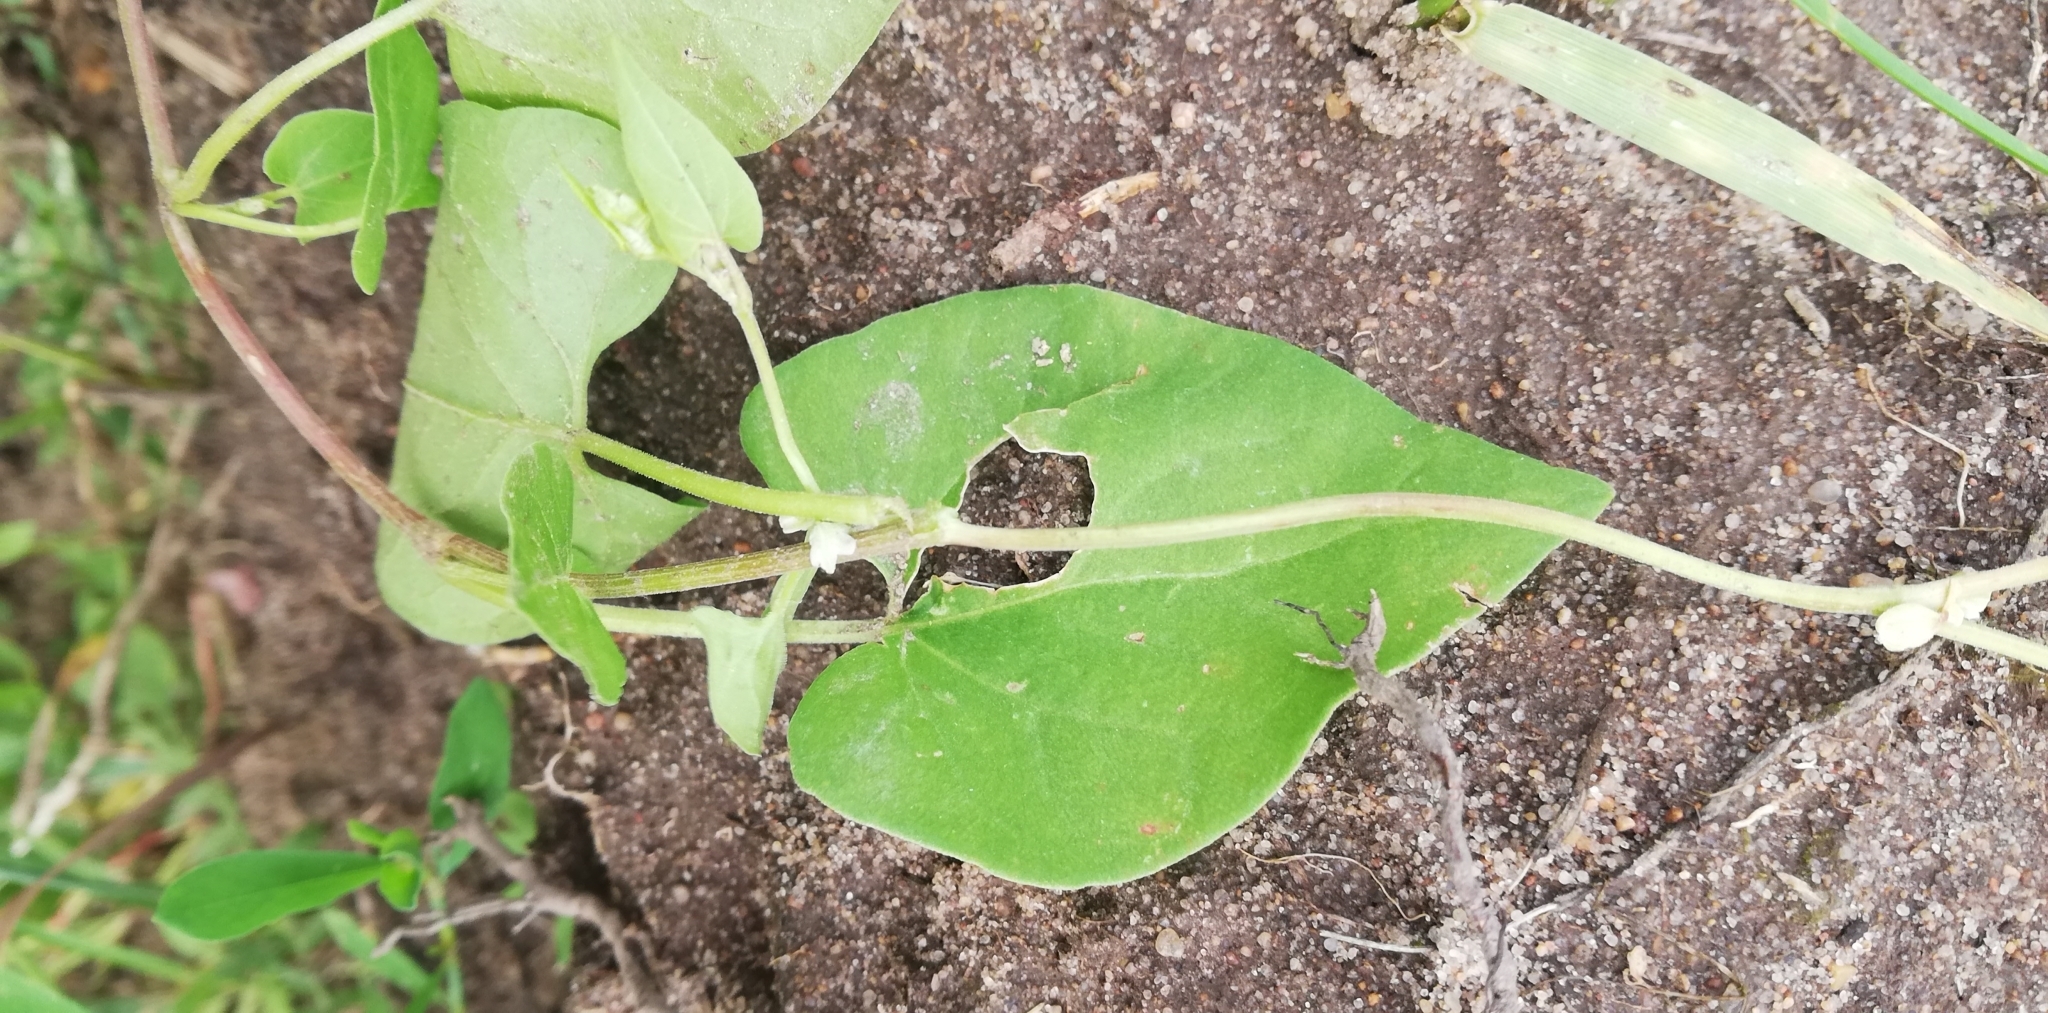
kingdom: Plantae
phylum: Tracheophyta
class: Magnoliopsida
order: Caryophyllales
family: Polygonaceae
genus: Fallopia
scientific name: Fallopia convolvulus
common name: Black bindweed
